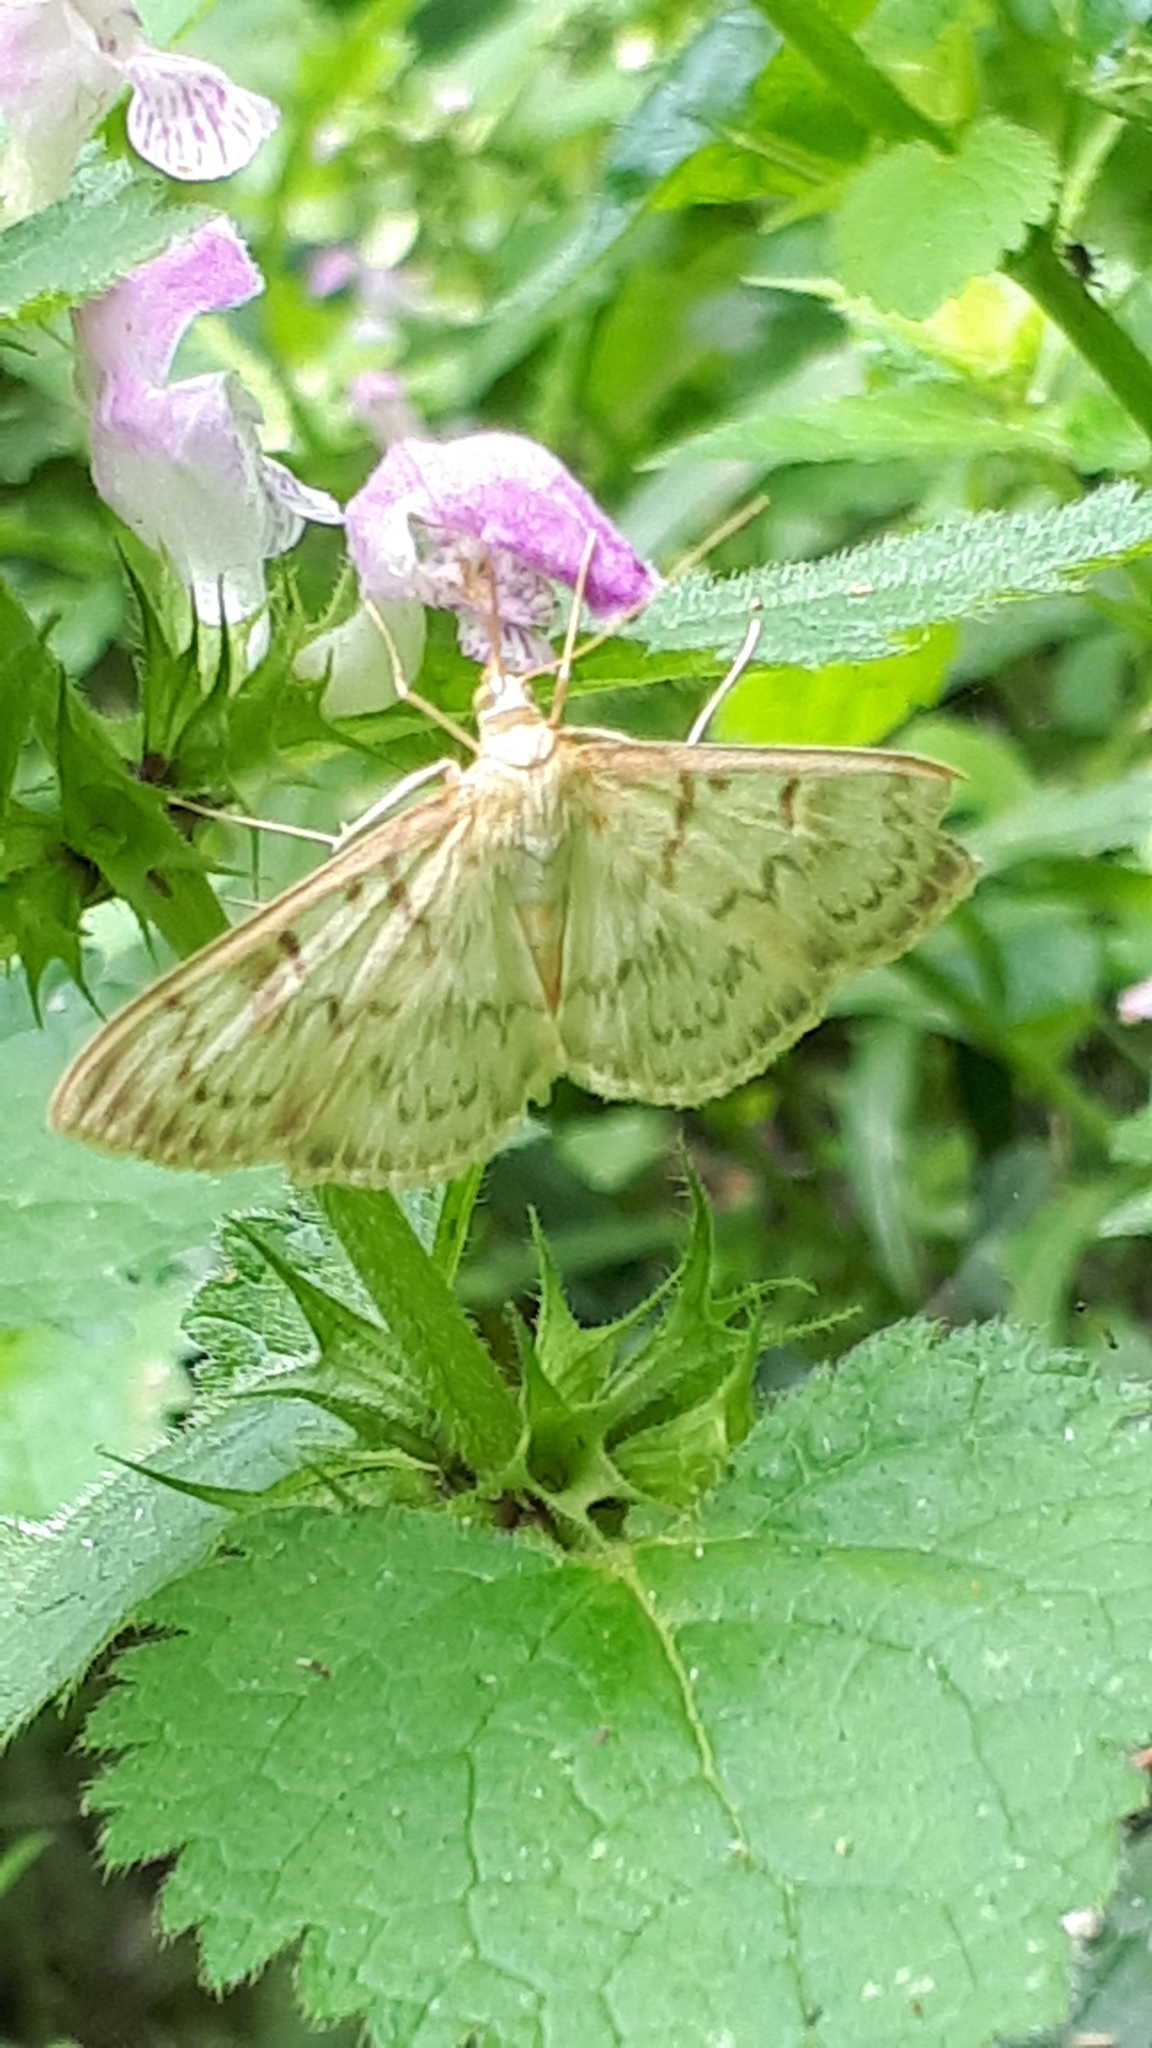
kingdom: Animalia
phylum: Arthropoda
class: Insecta
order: Lepidoptera
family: Crambidae
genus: Patania
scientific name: Patania ruralis
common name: Mother of pearl
